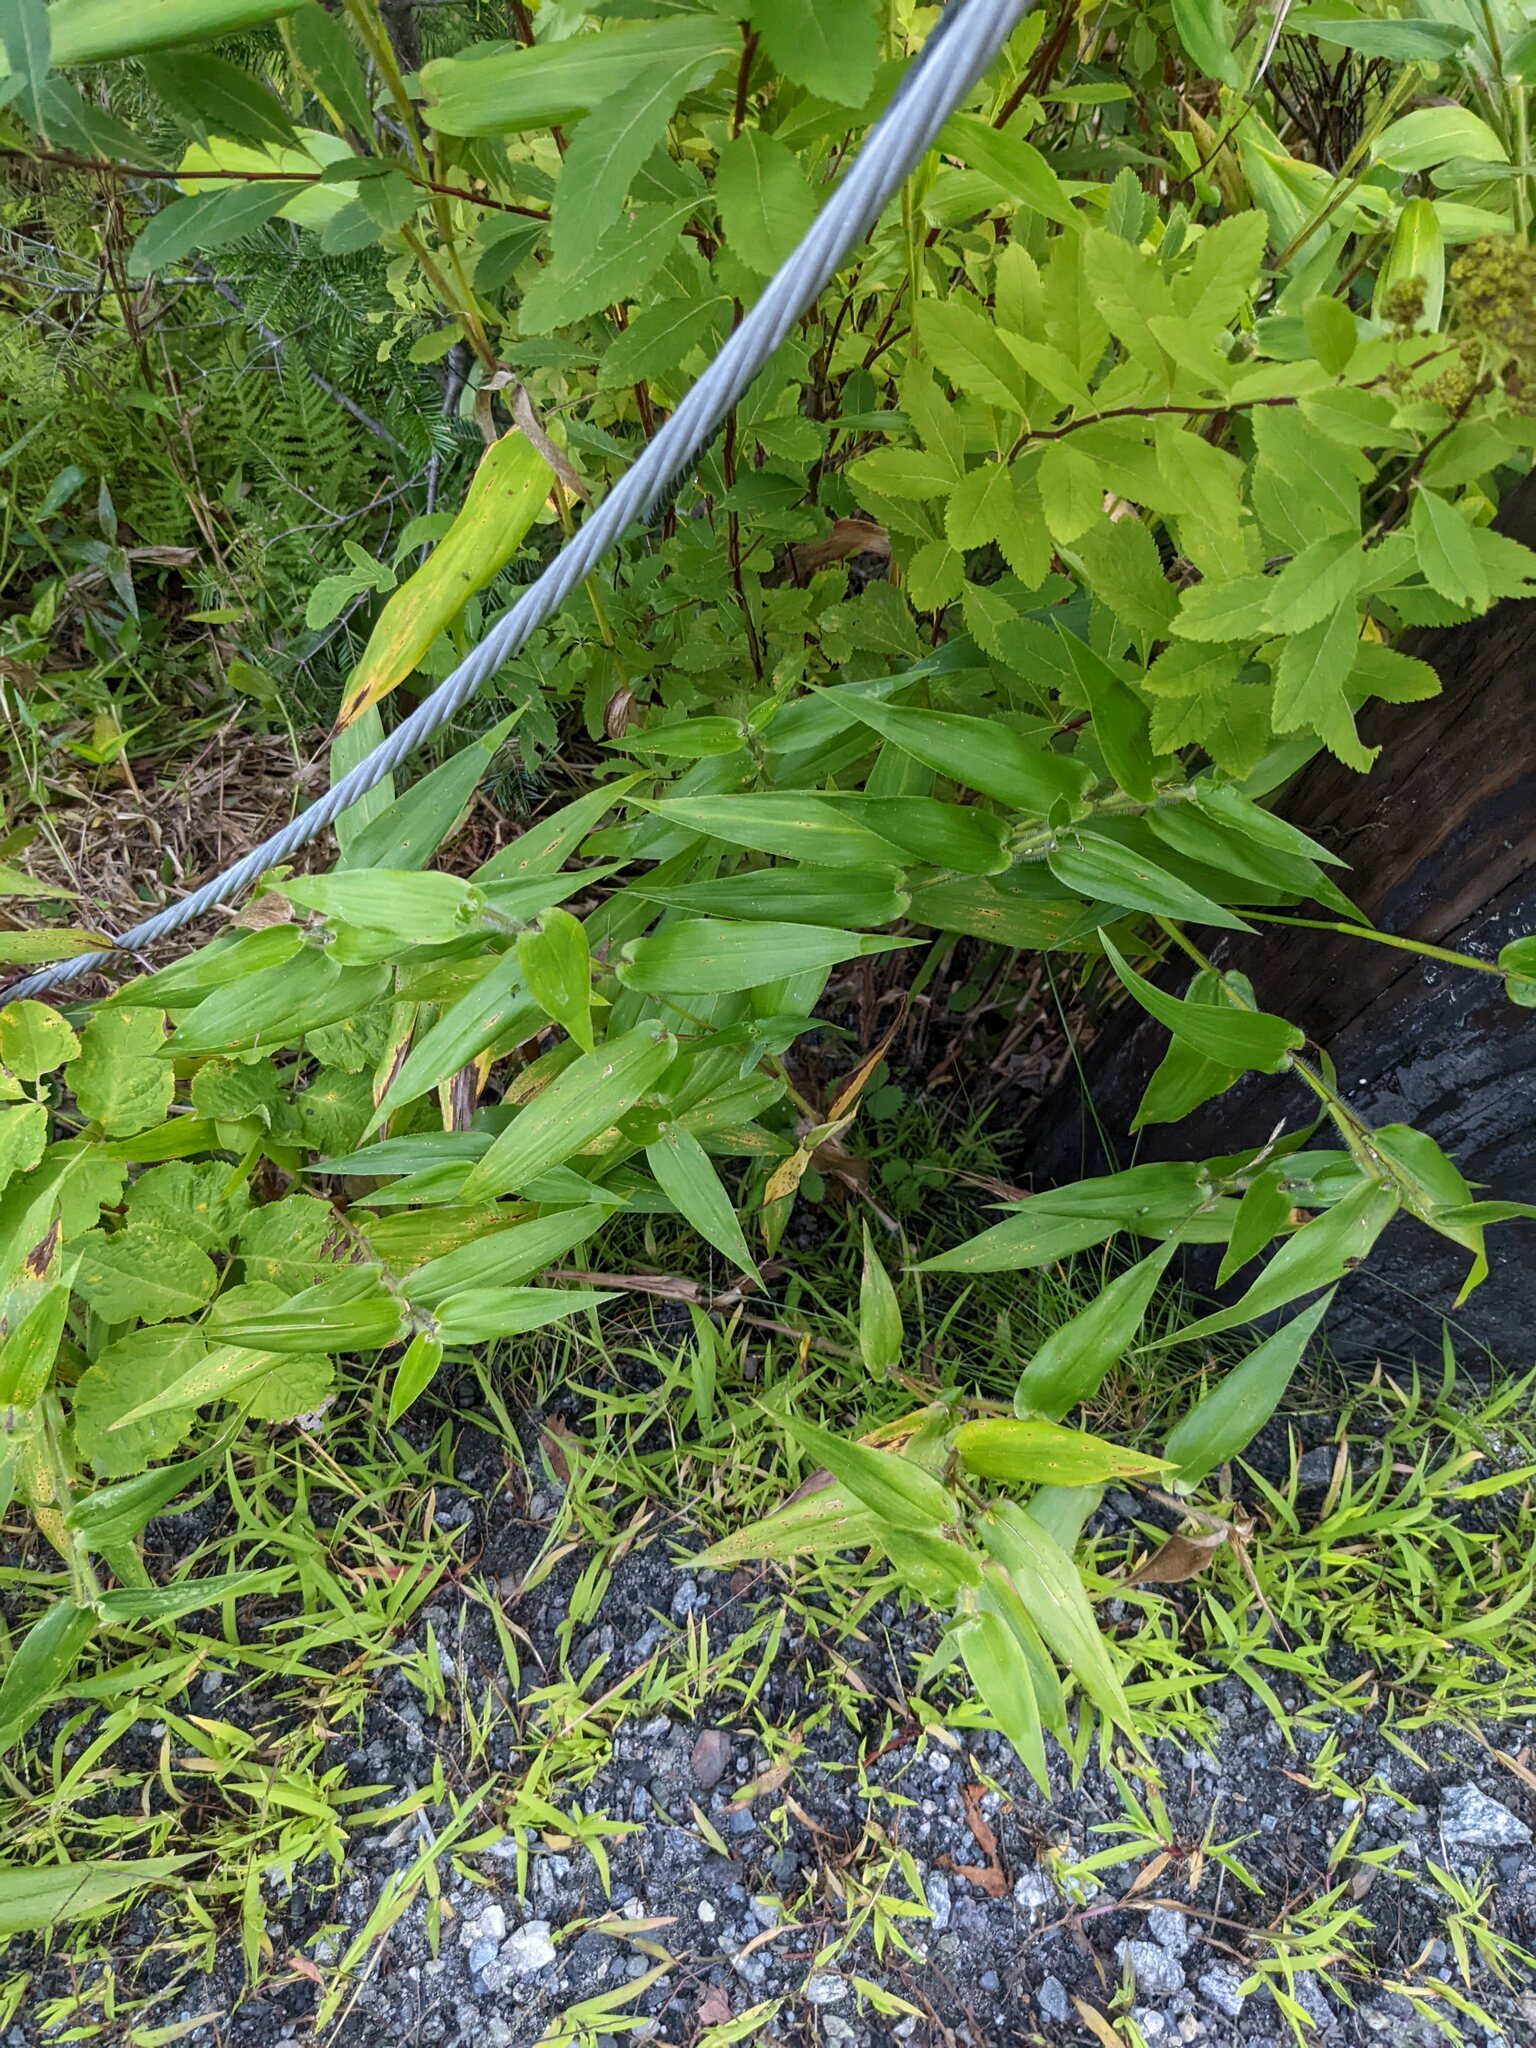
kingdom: Plantae
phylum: Tracheophyta
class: Liliopsida
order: Poales
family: Poaceae
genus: Dichanthelium
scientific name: Dichanthelium clandestinum
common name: Deer-tongue grass
